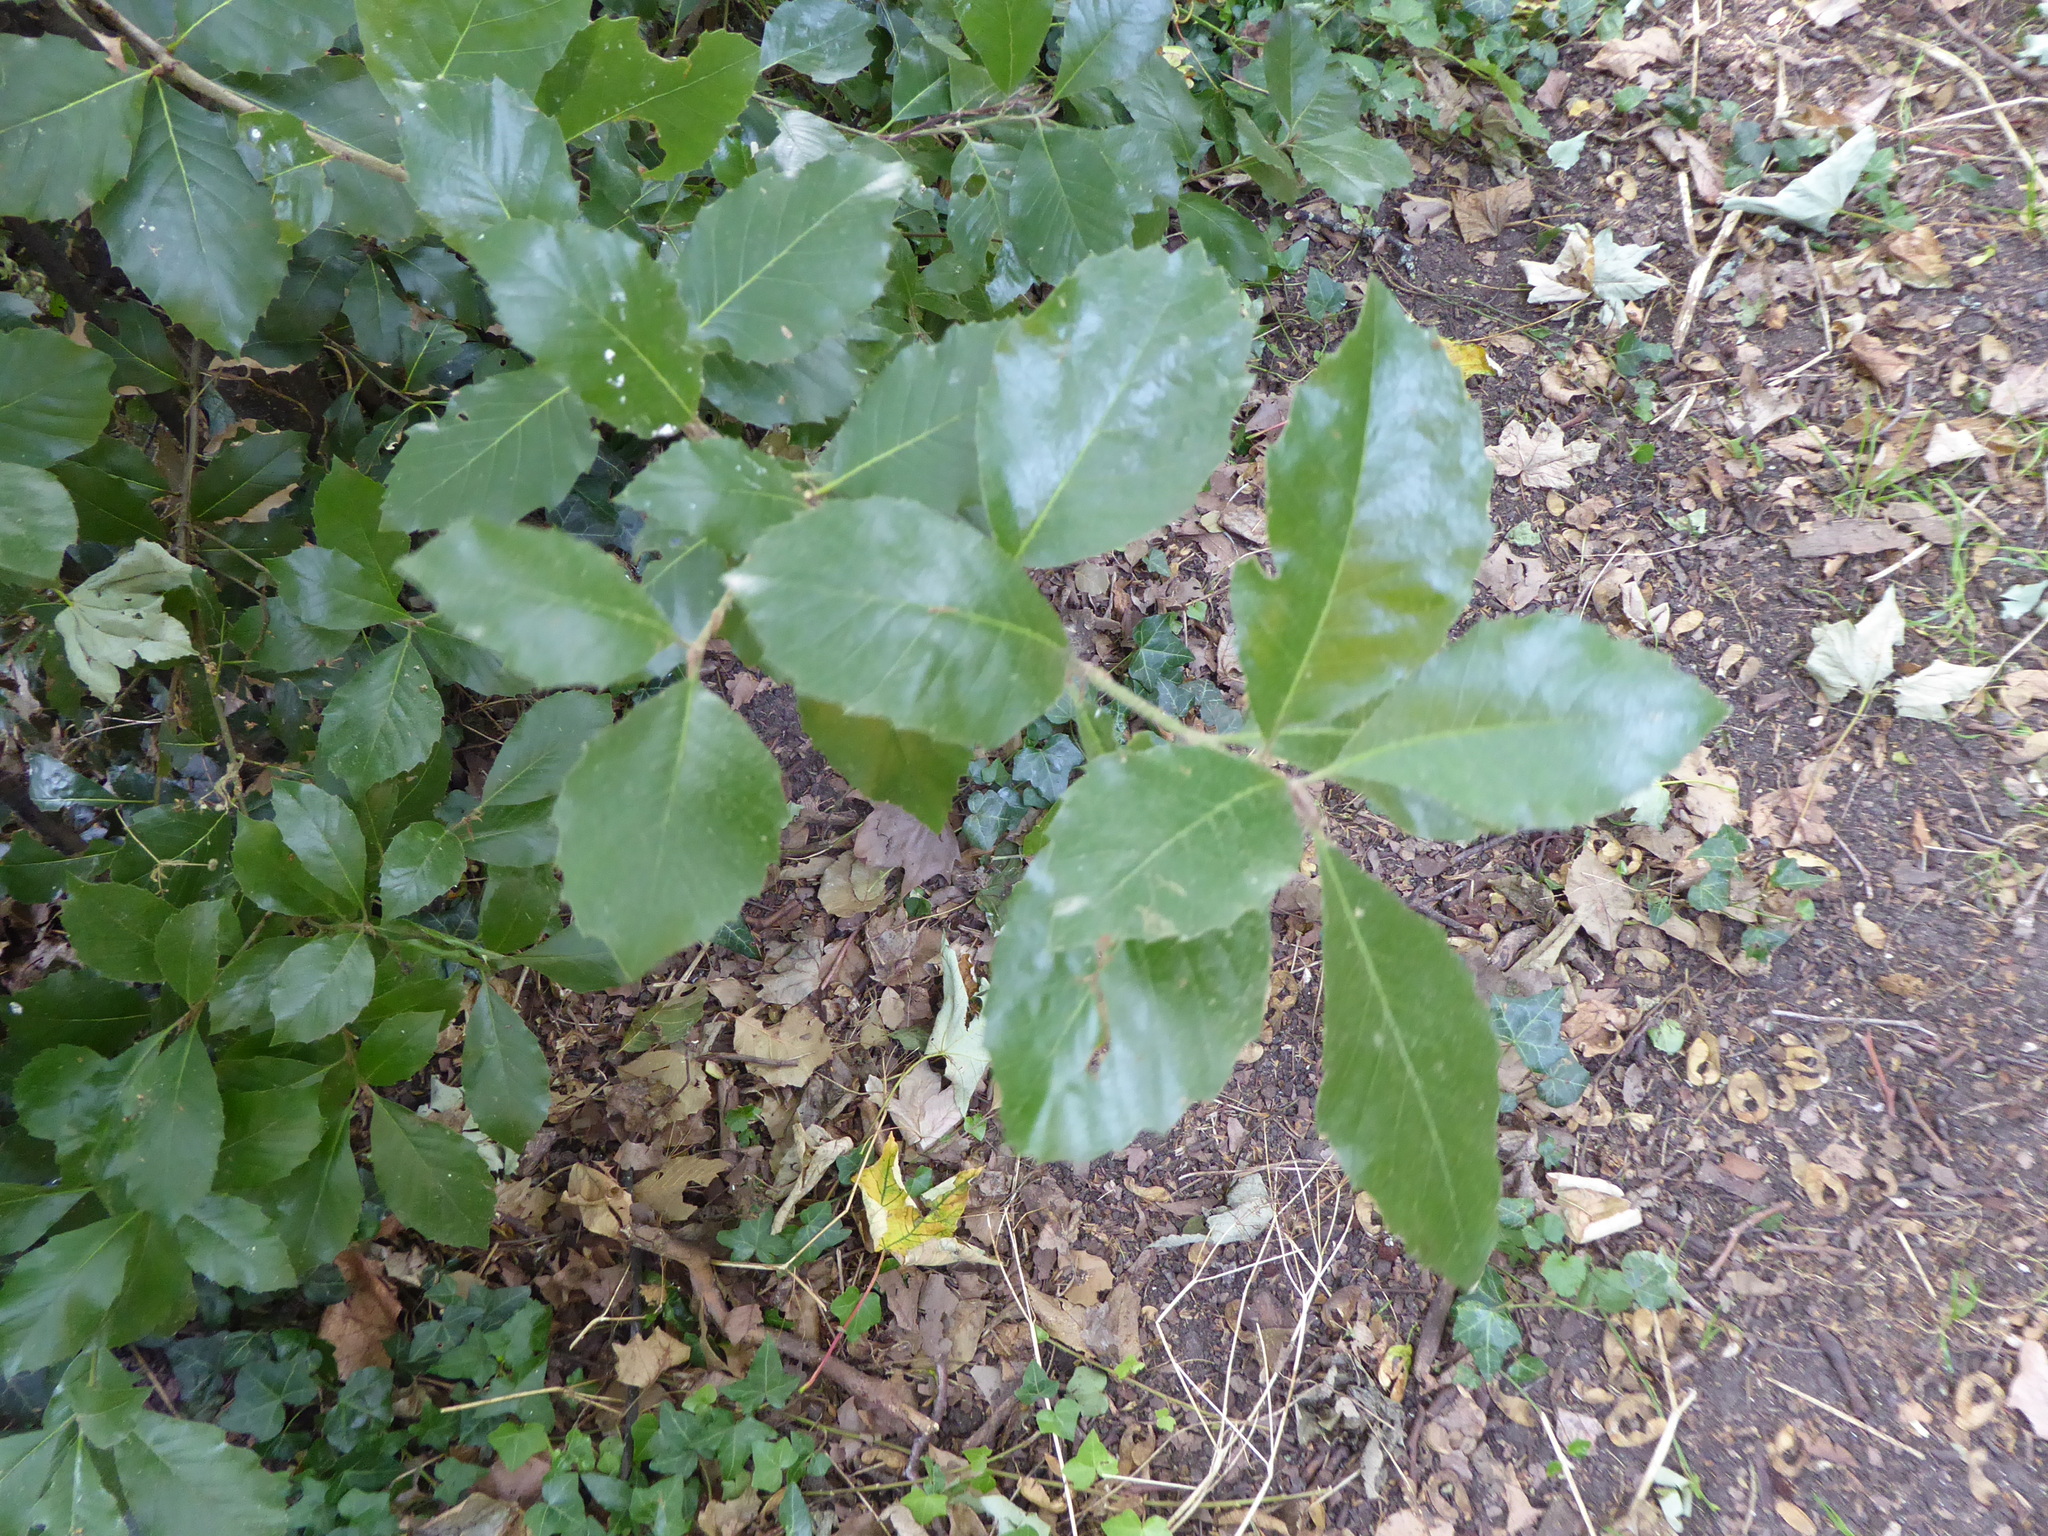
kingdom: Plantae
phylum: Tracheophyta
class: Magnoliopsida
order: Fagales
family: Fagaceae
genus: Quercus
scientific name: Quercus ilex
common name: Evergreen oak
